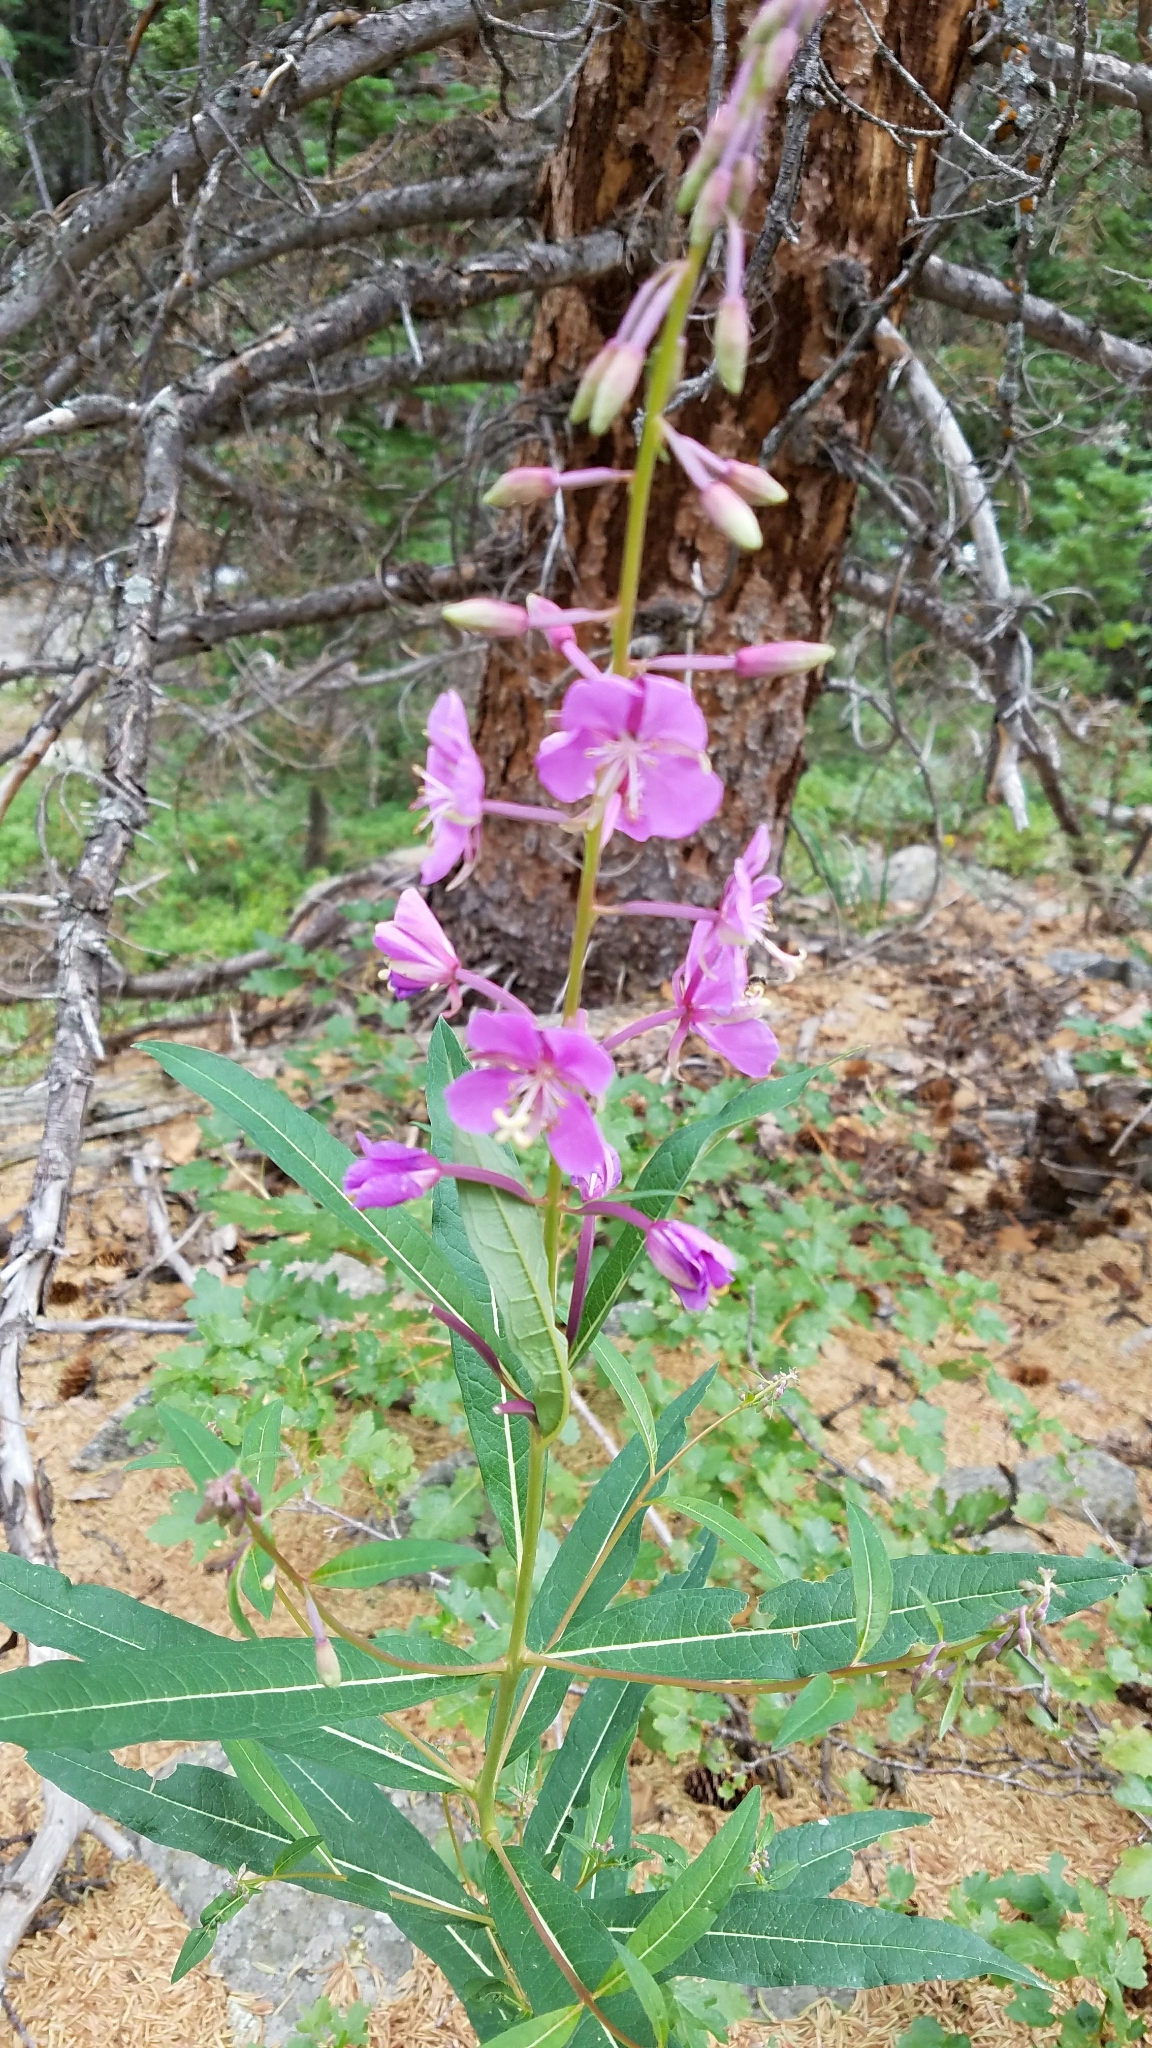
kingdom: Plantae
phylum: Tracheophyta
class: Magnoliopsida
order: Myrtales
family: Onagraceae
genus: Chamaenerion
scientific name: Chamaenerion angustifolium
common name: Fireweed
